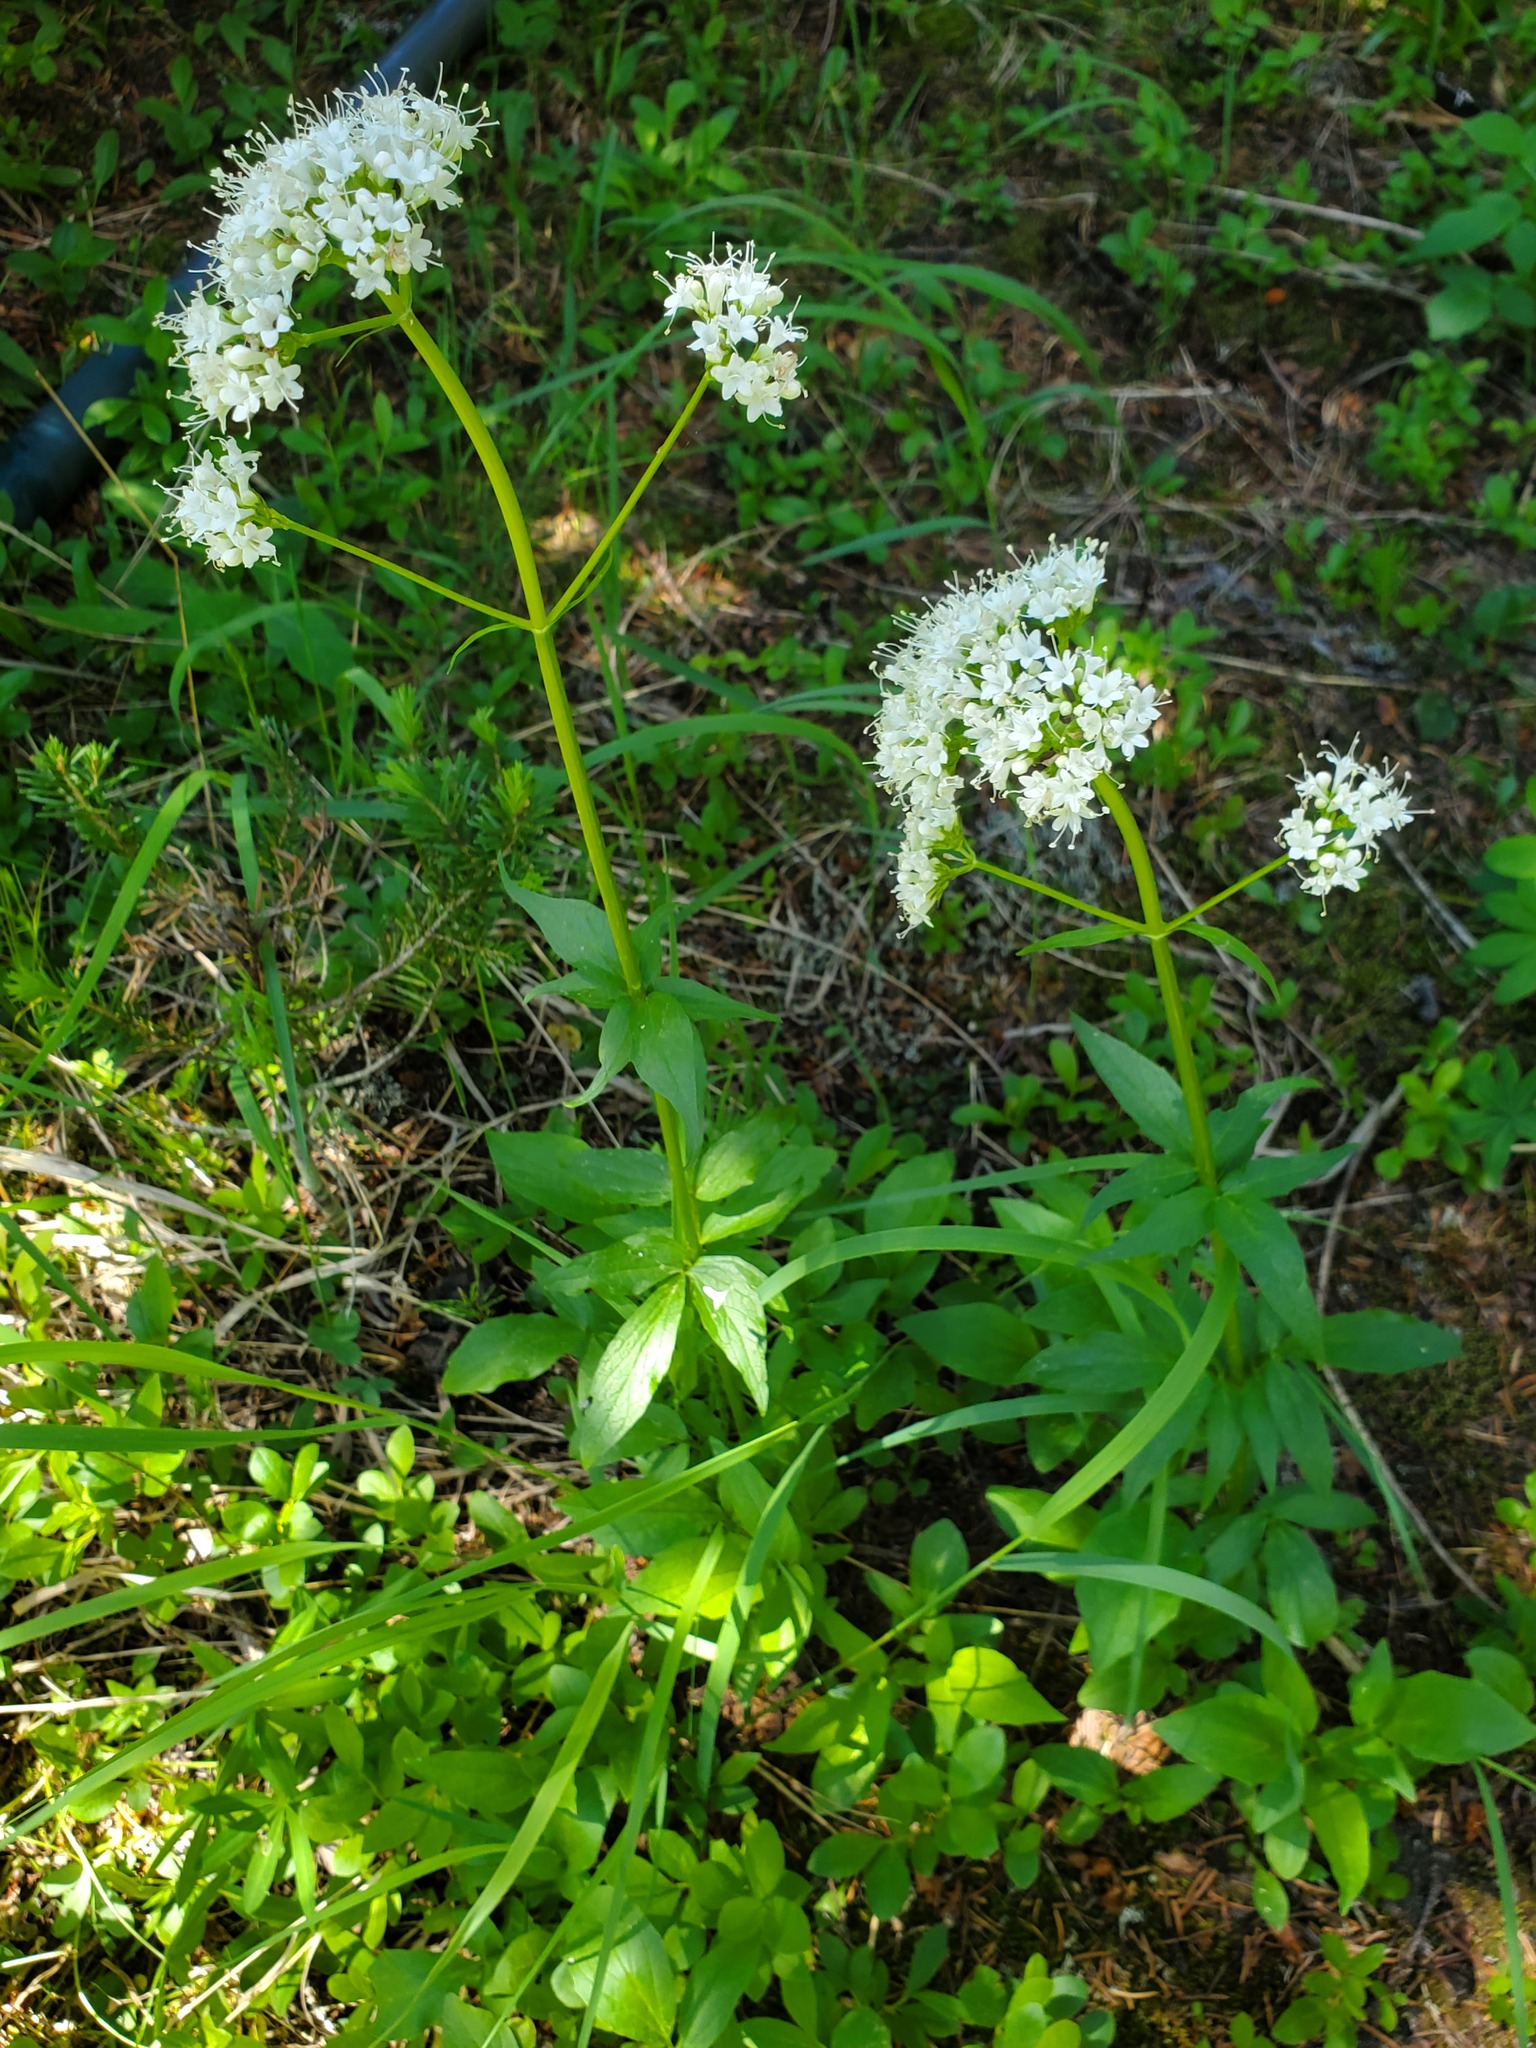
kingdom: Plantae
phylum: Tracheophyta
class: Magnoliopsida
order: Dipsacales
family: Caprifoliaceae
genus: Valeriana
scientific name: Valeriana sitchensis
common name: Pacific valerian
